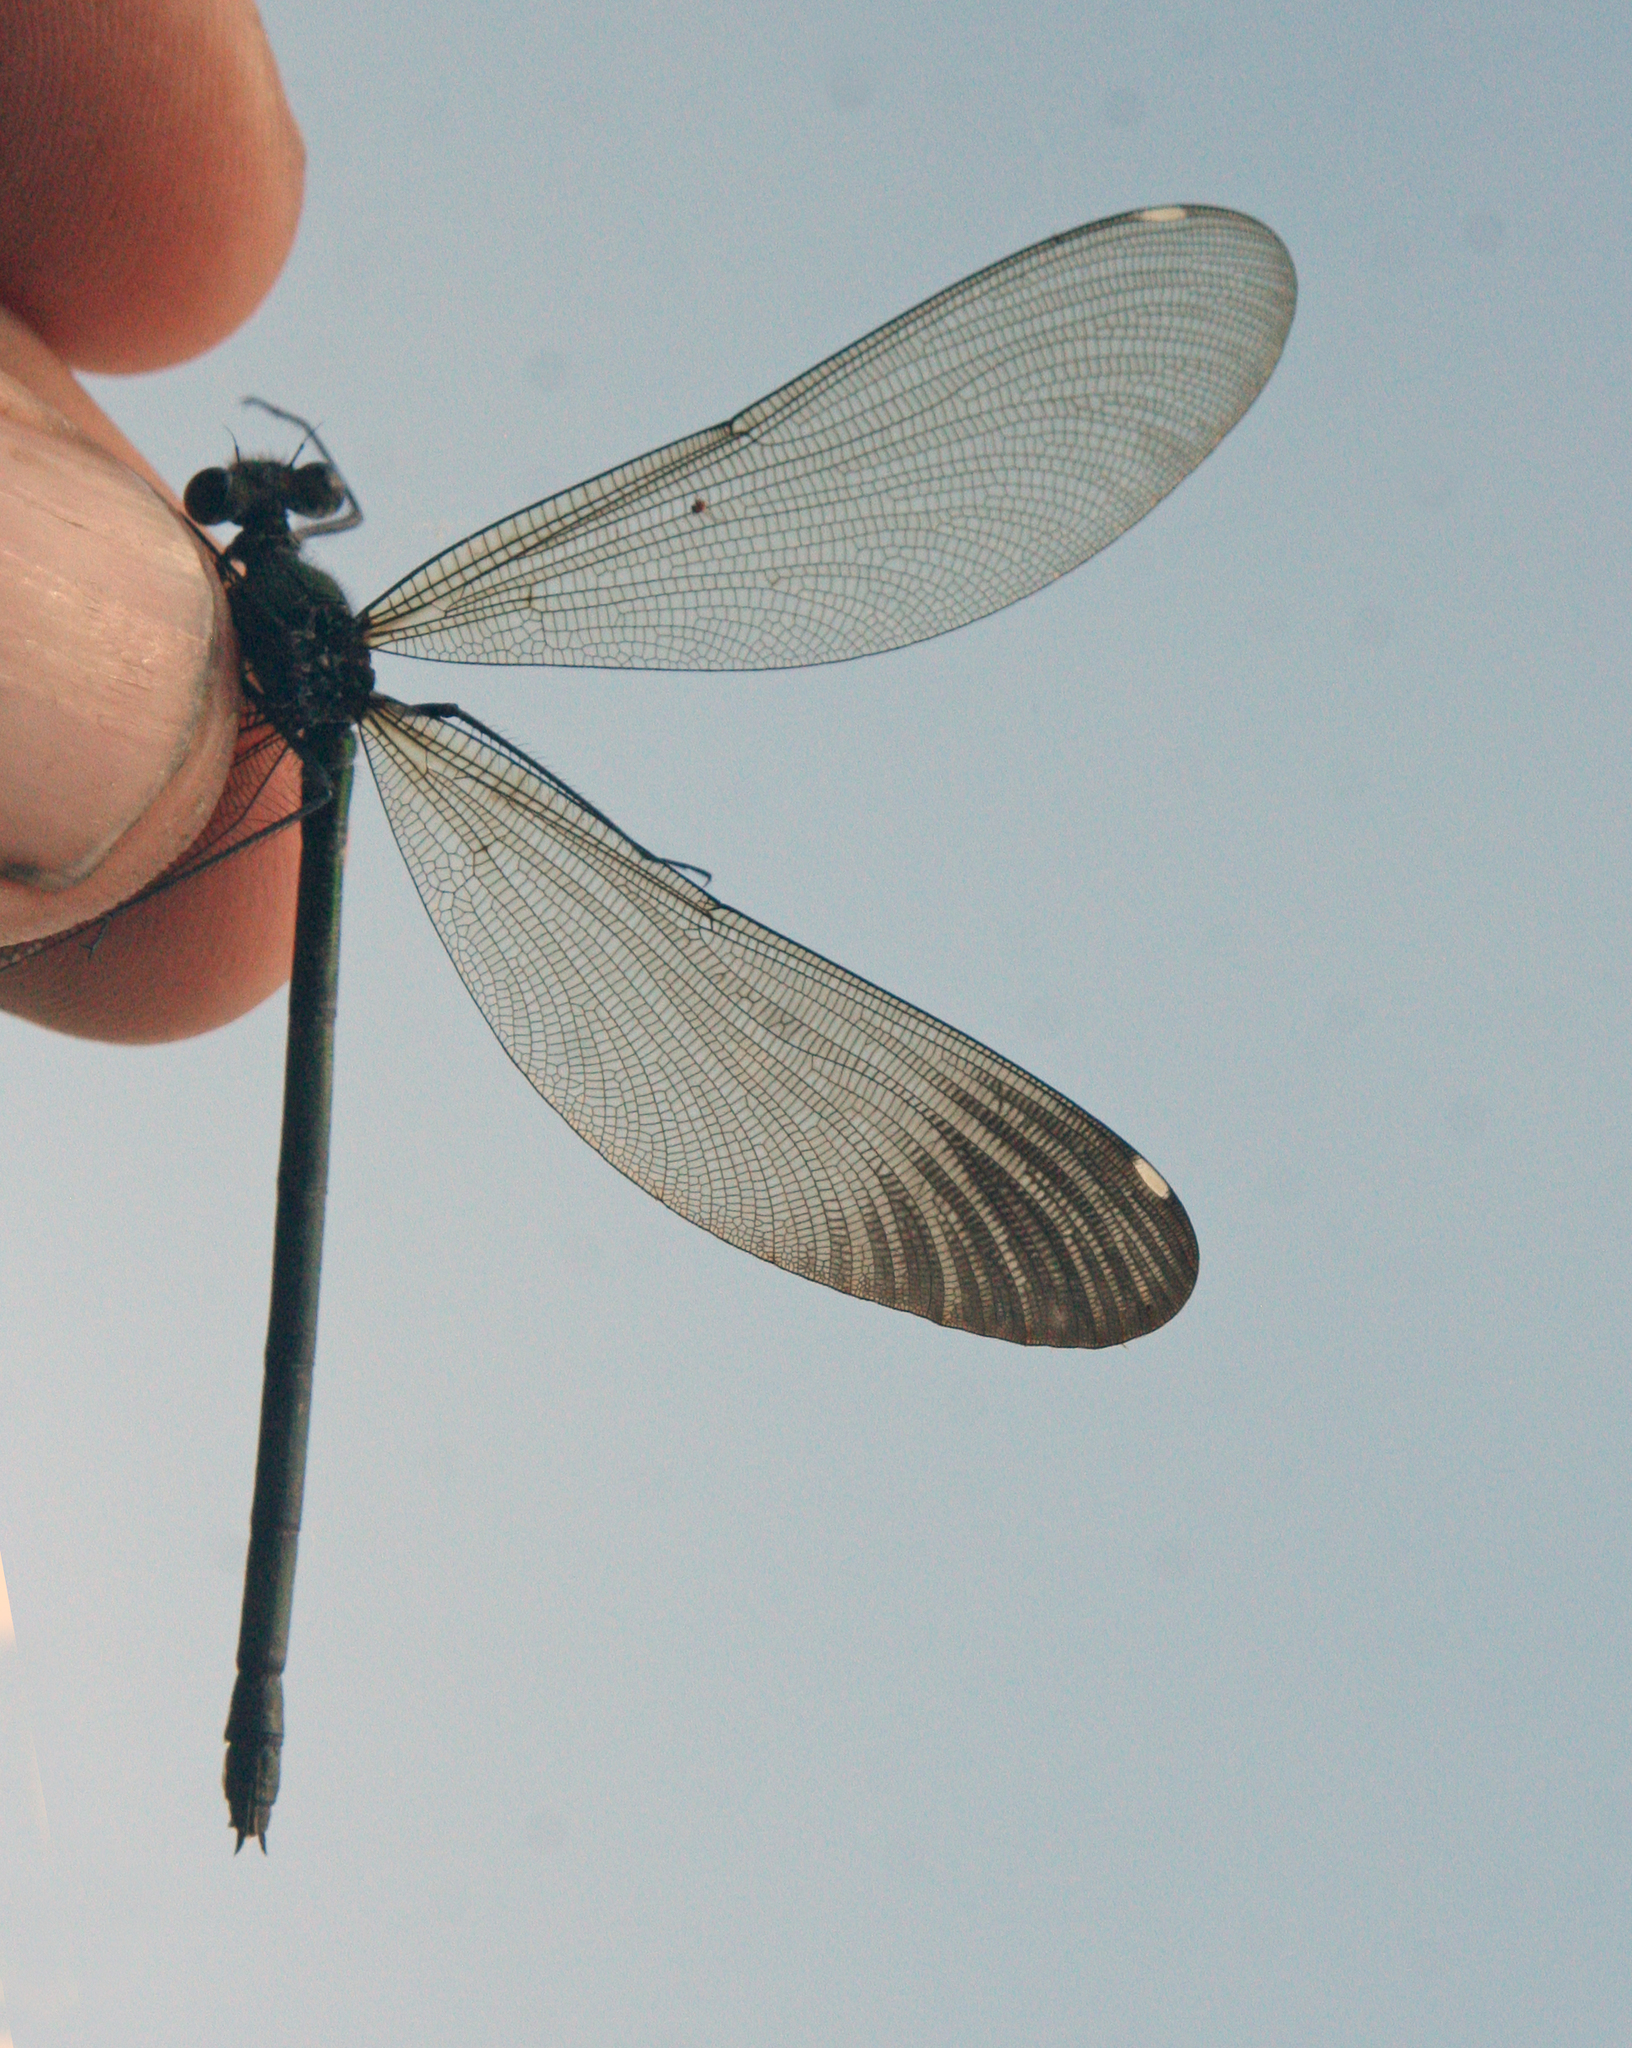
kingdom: Animalia
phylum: Arthropoda
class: Insecta
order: Odonata
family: Calopterygidae
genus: Calopteryx
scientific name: Calopteryx virgo
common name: Beautiful demoiselle
